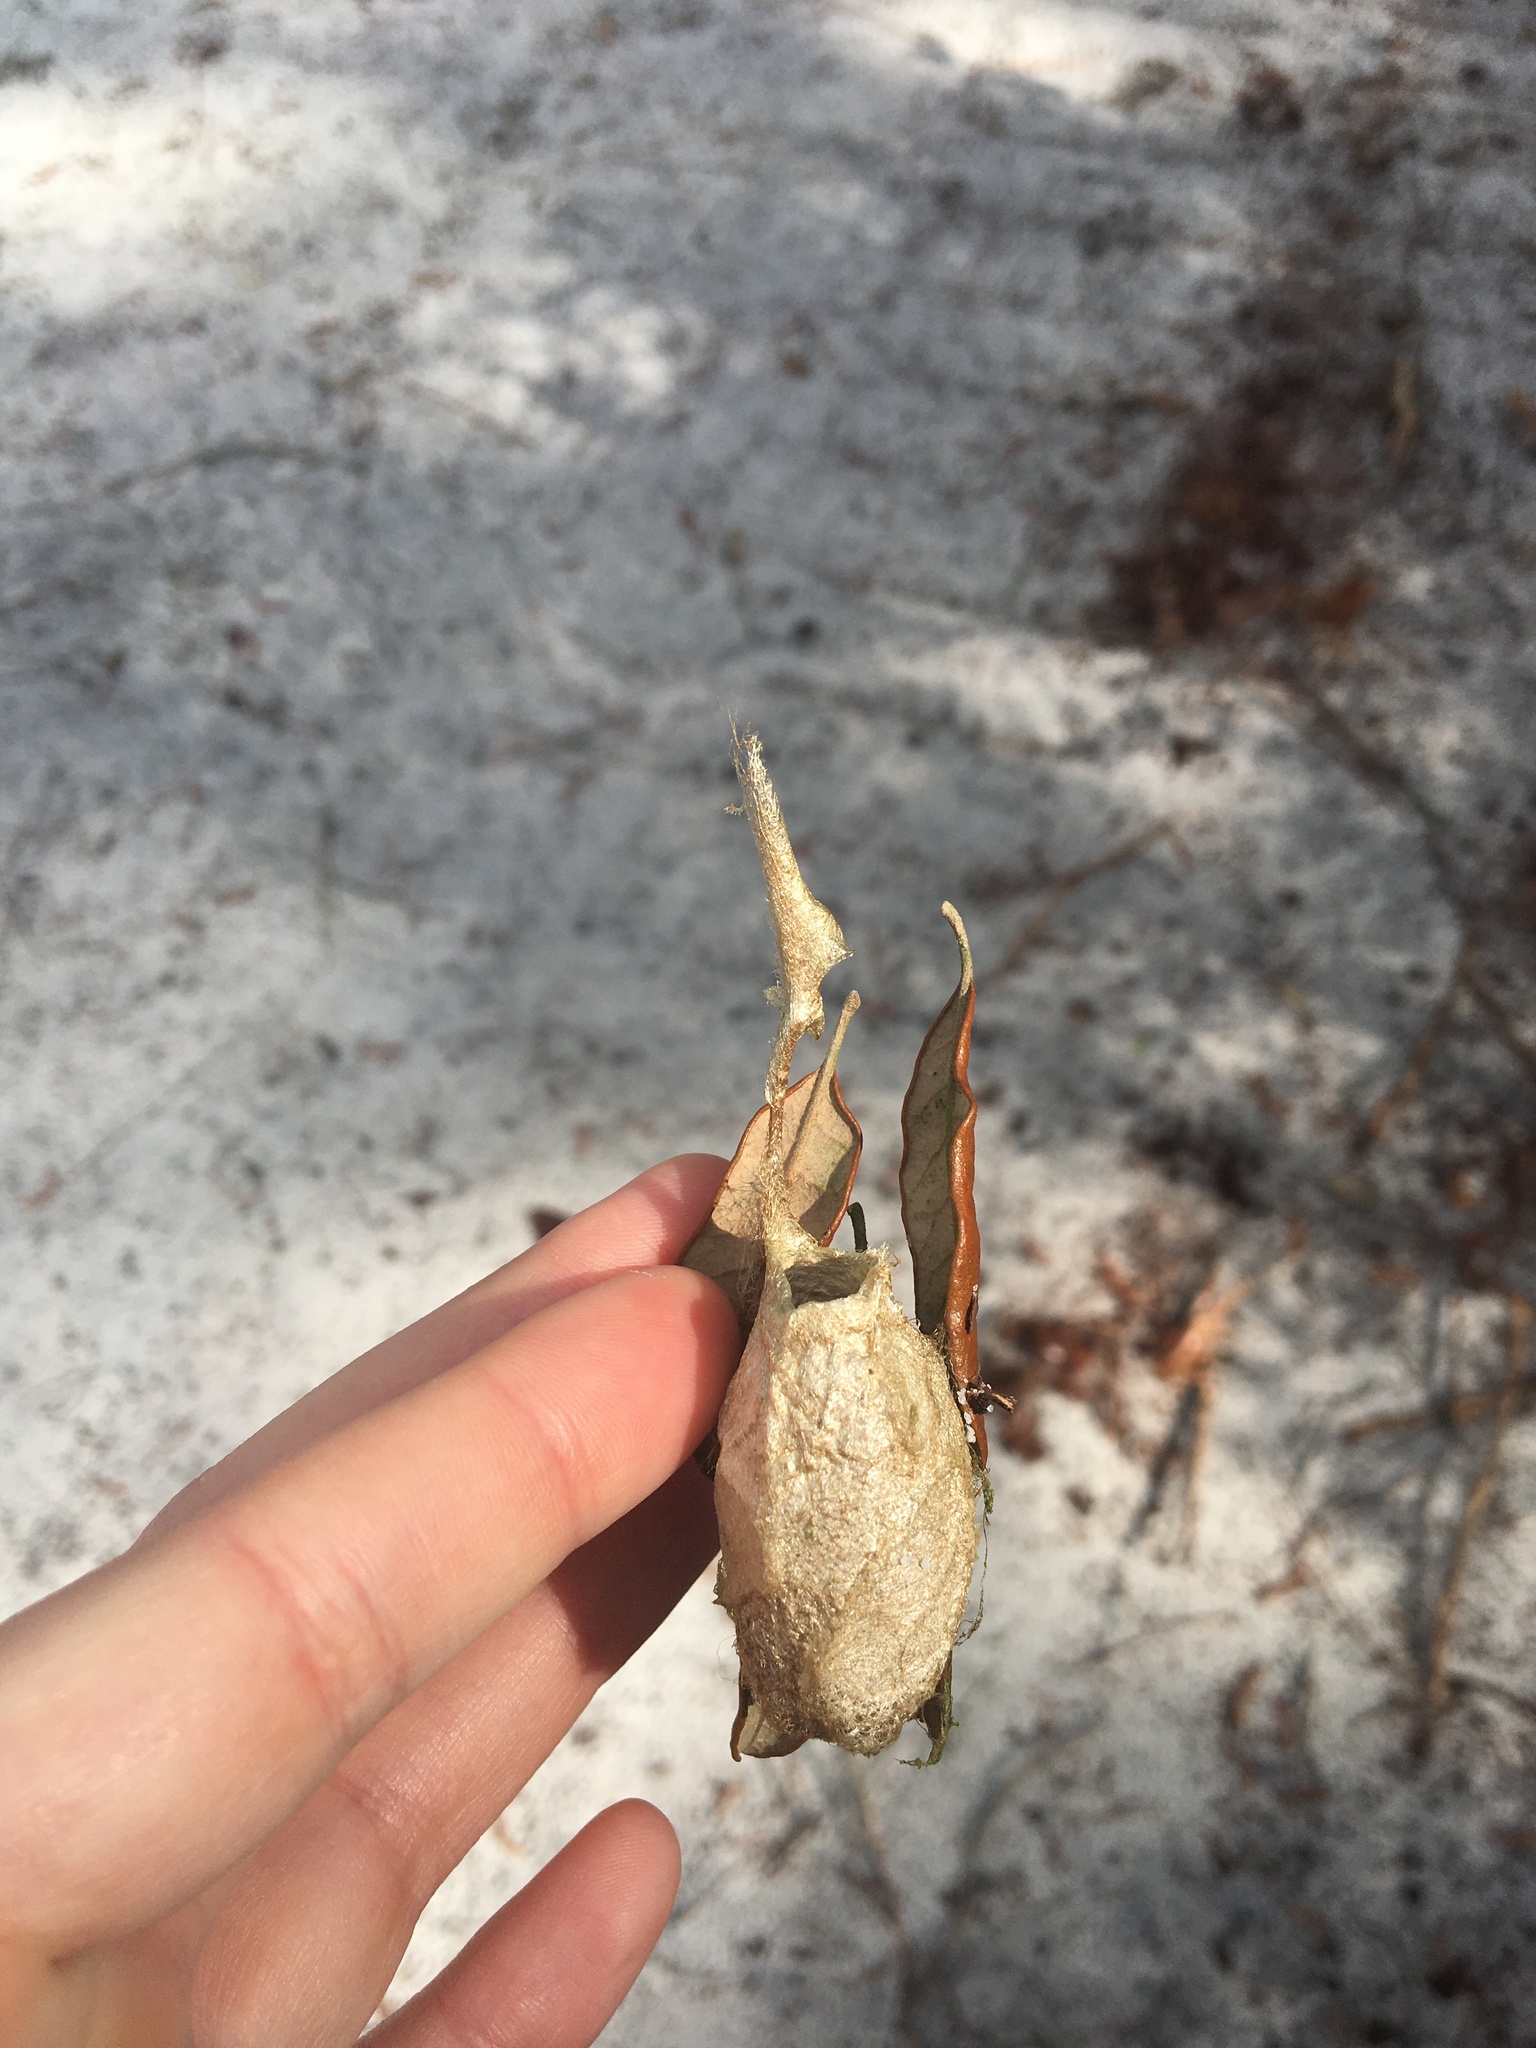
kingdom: Animalia
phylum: Arthropoda
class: Insecta
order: Lepidoptera
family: Saturniidae
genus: Antheraea
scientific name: Antheraea polyphemus
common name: Polyphemus moth
